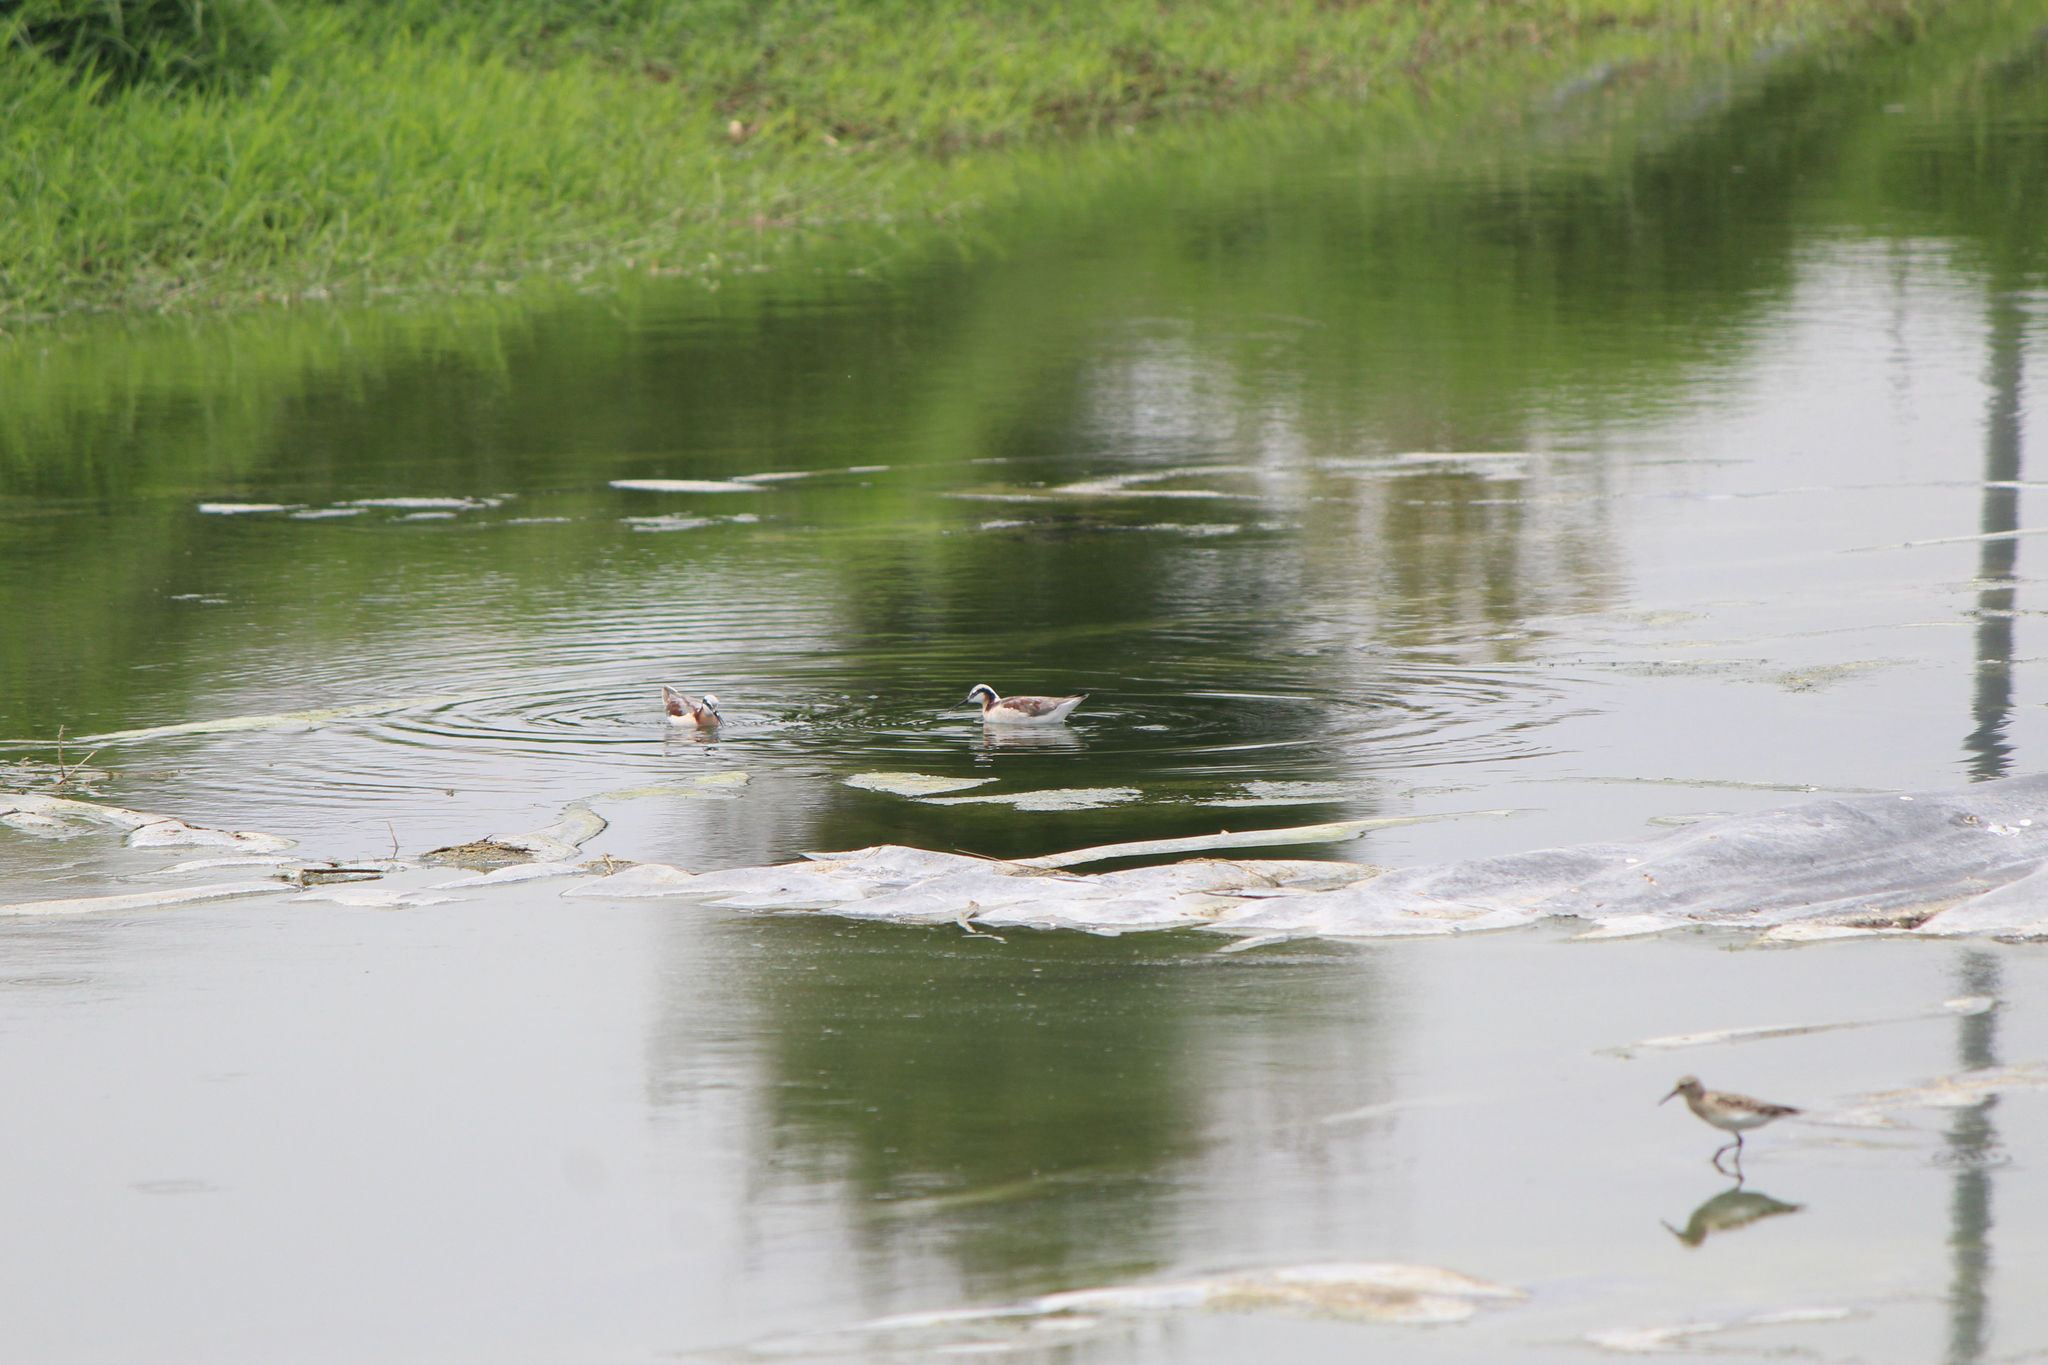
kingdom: Animalia
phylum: Chordata
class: Aves
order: Charadriiformes
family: Scolopacidae
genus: Phalaropus
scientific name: Phalaropus tricolor
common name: Wilson's phalarope
